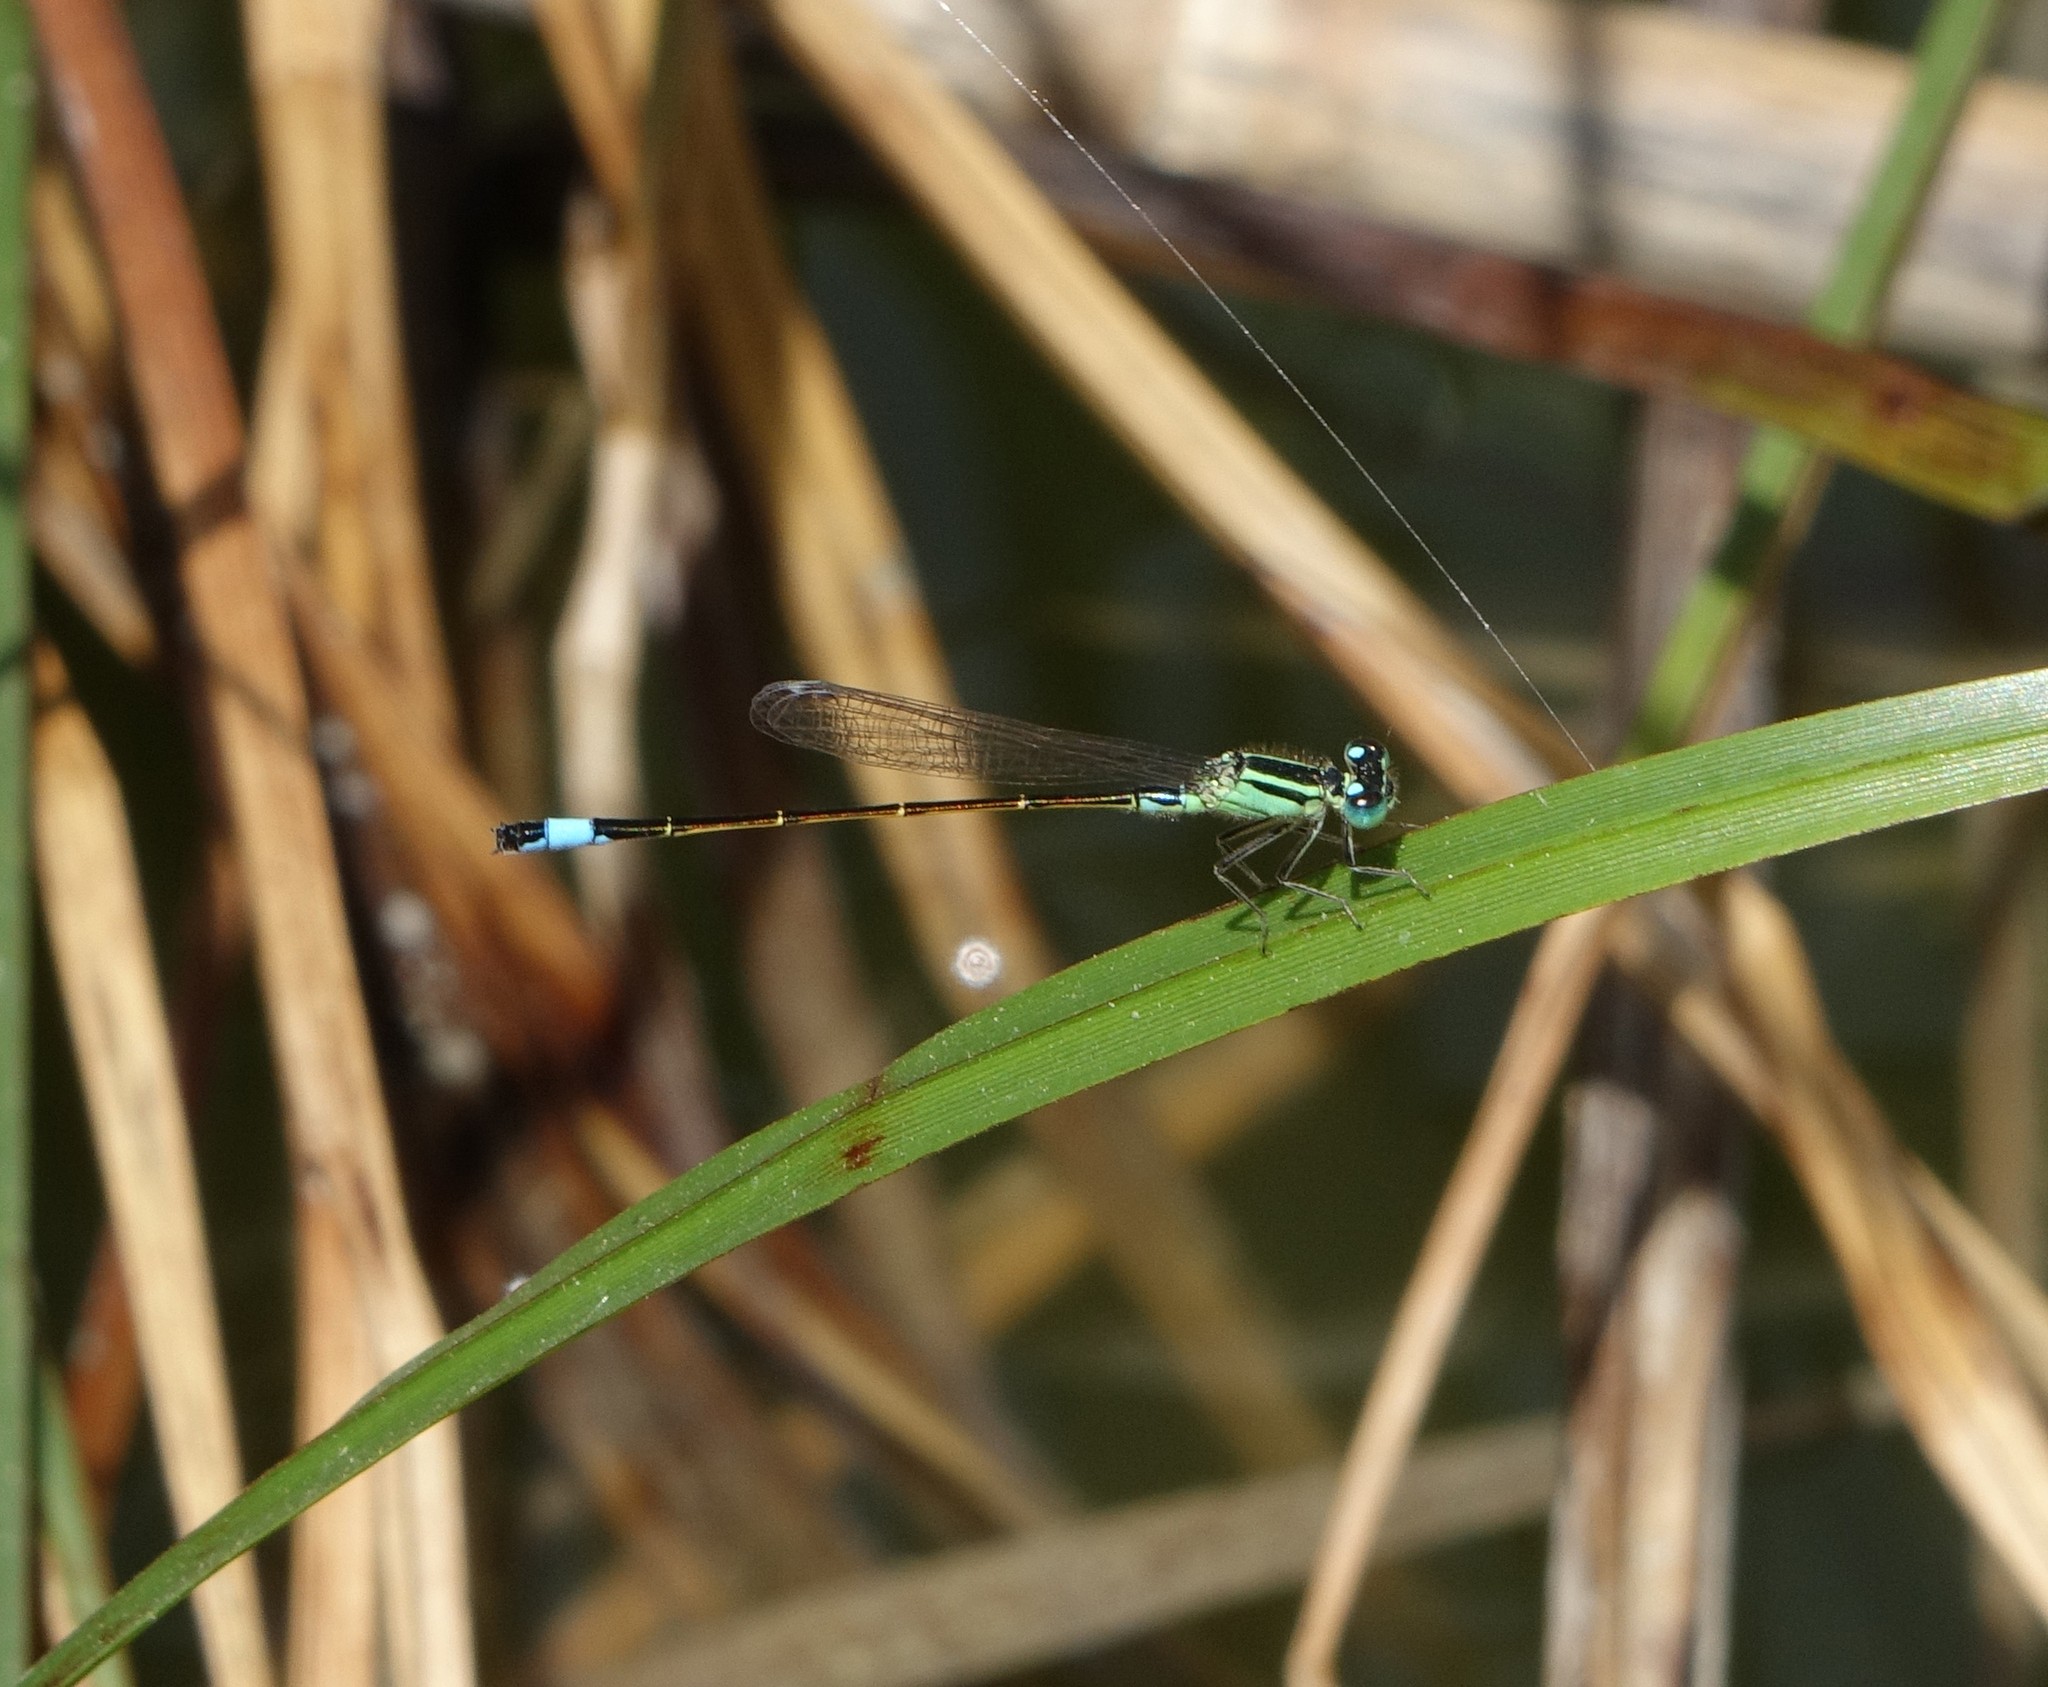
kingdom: Animalia
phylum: Arthropoda
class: Insecta
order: Odonata
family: Coenagrionidae
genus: Ischnura
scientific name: Ischnura elegans
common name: Blue-tailed damselfly
